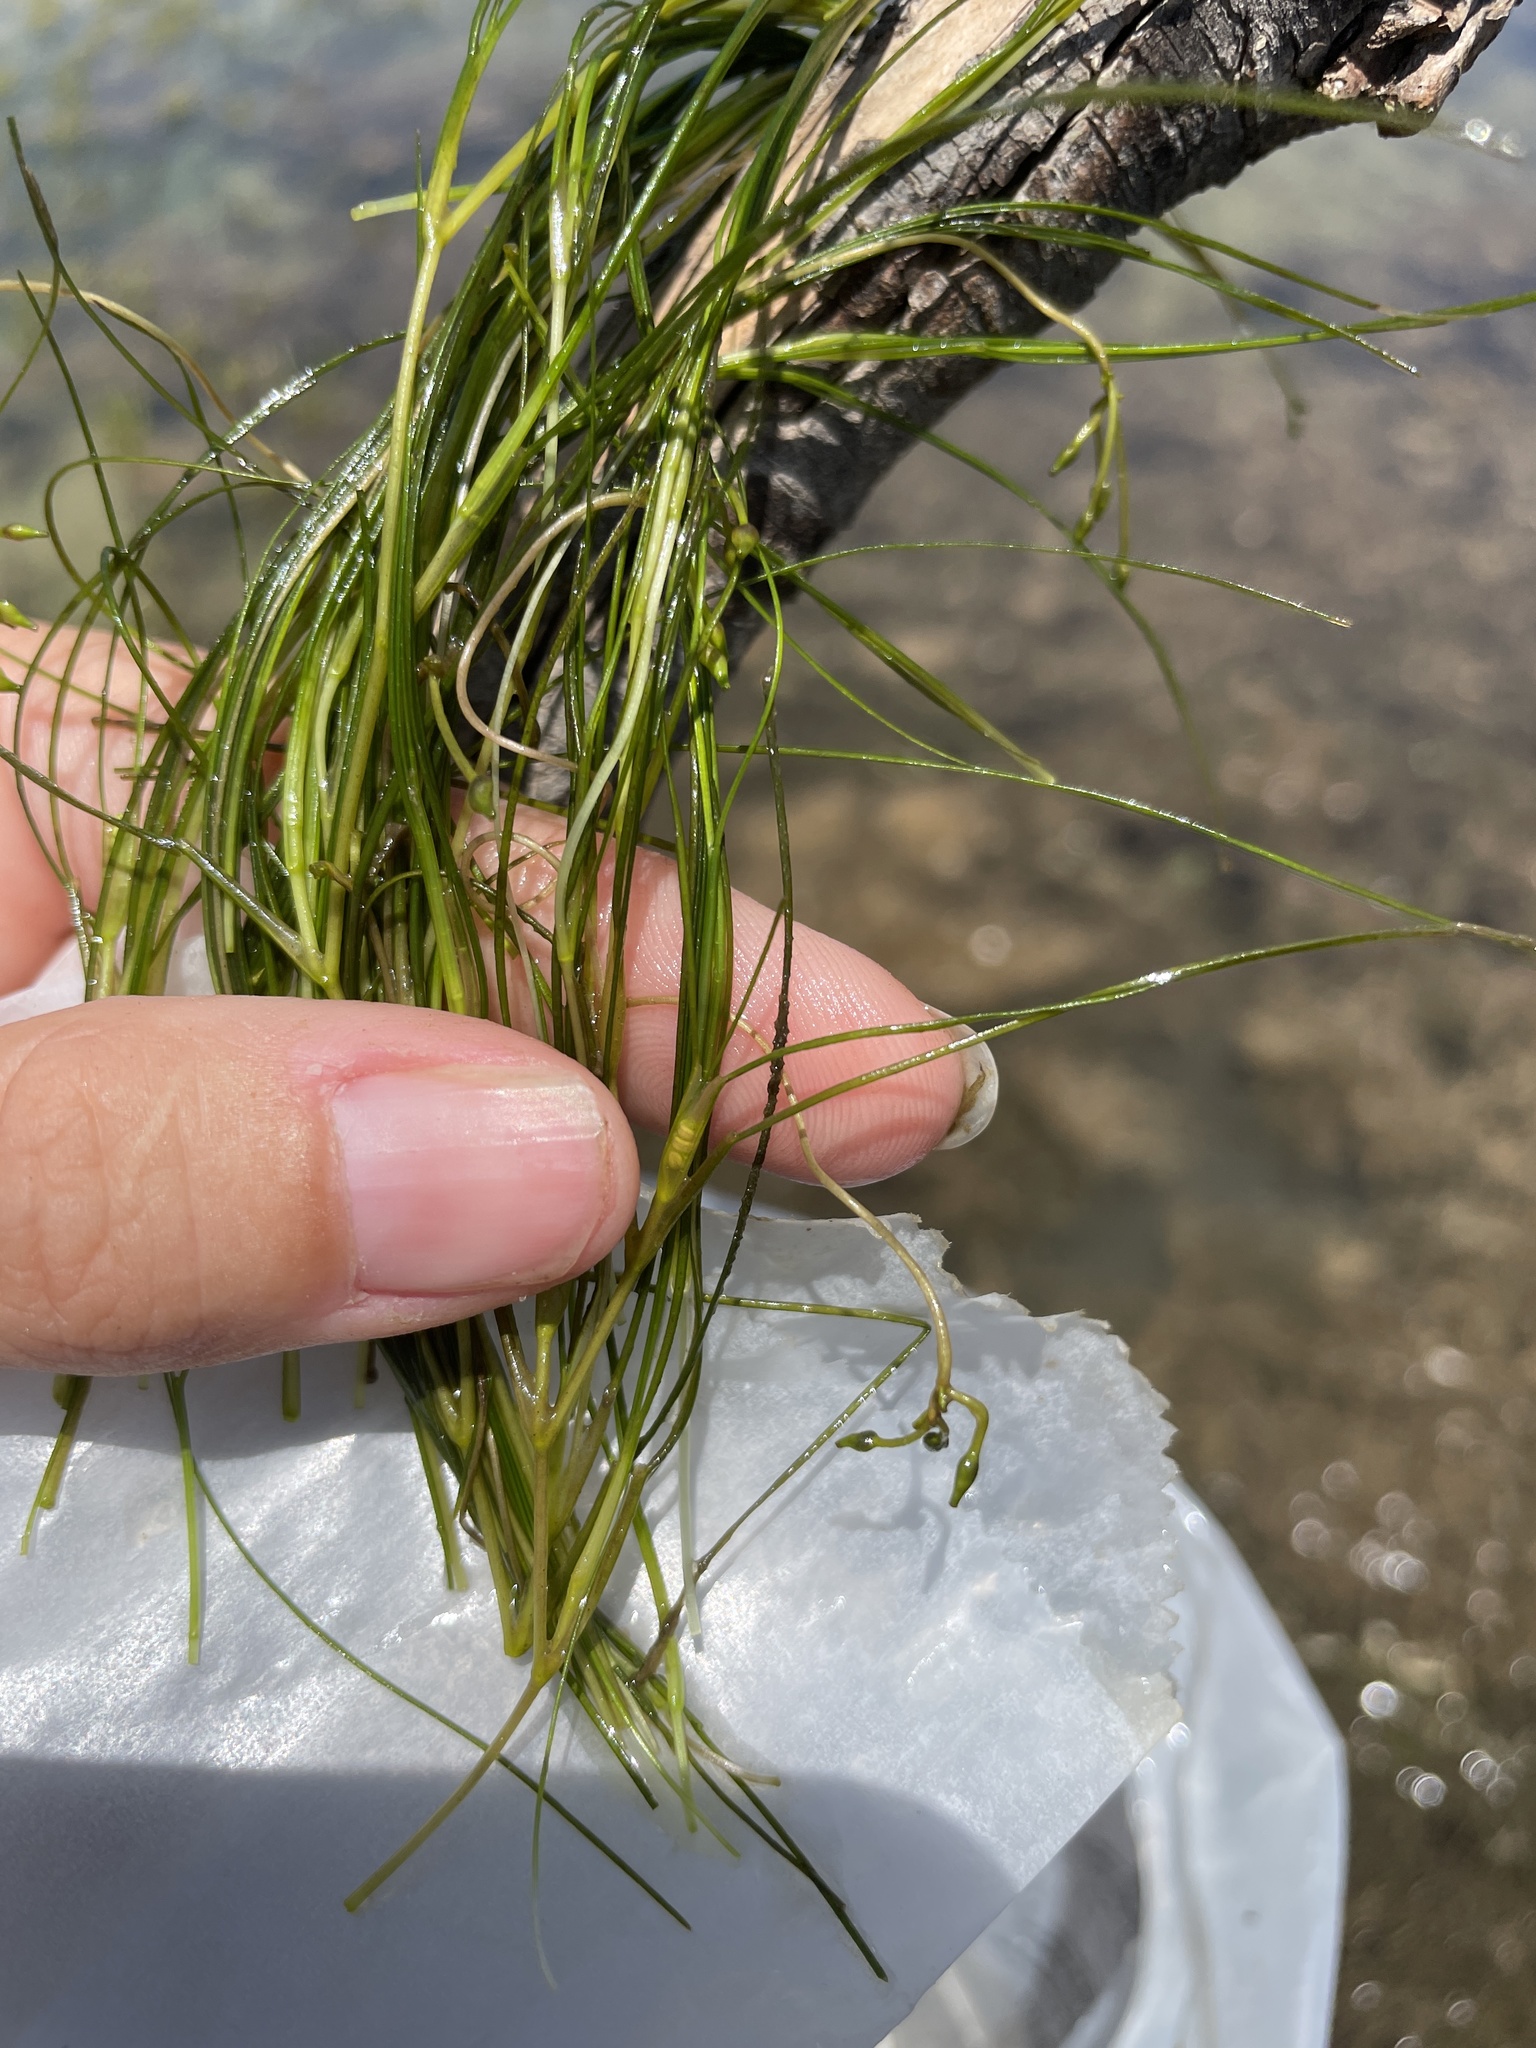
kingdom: Plantae
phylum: Tracheophyta
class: Liliopsida
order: Alismatales
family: Ruppiaceae
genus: Ruppia
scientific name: Ruppia maritima
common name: Beaked tasselweed
